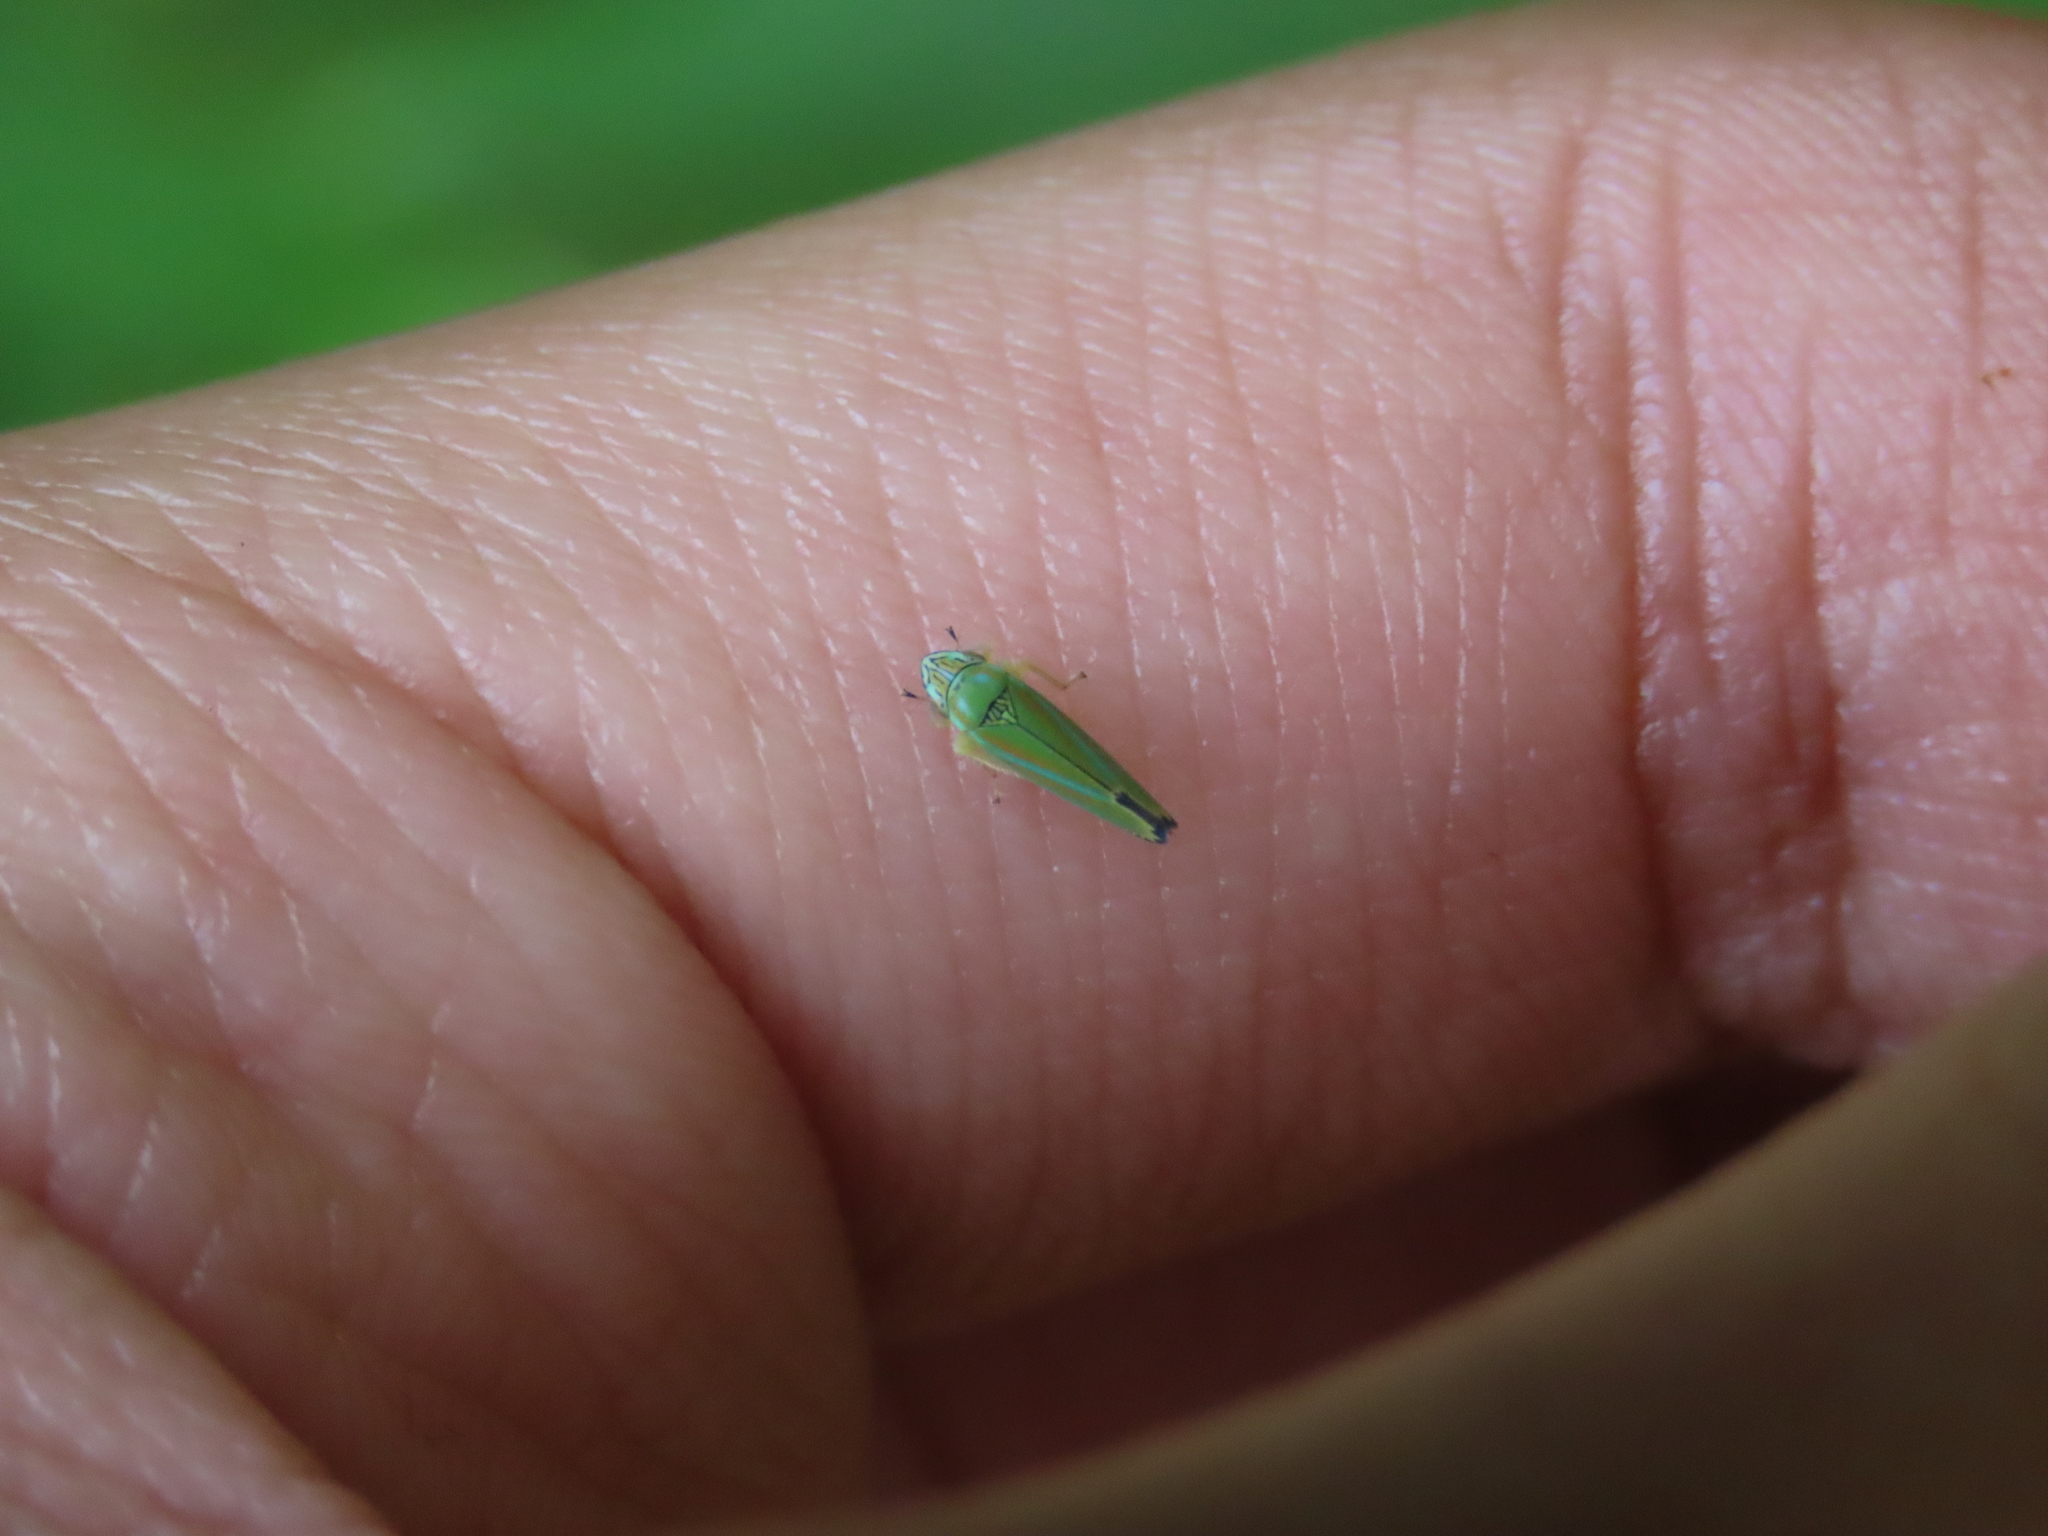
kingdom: Animalia
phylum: Arthropoda
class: Insecta
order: Hemiptera
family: Cicadellidae
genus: Graphocephala
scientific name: Graphocephala versuta
